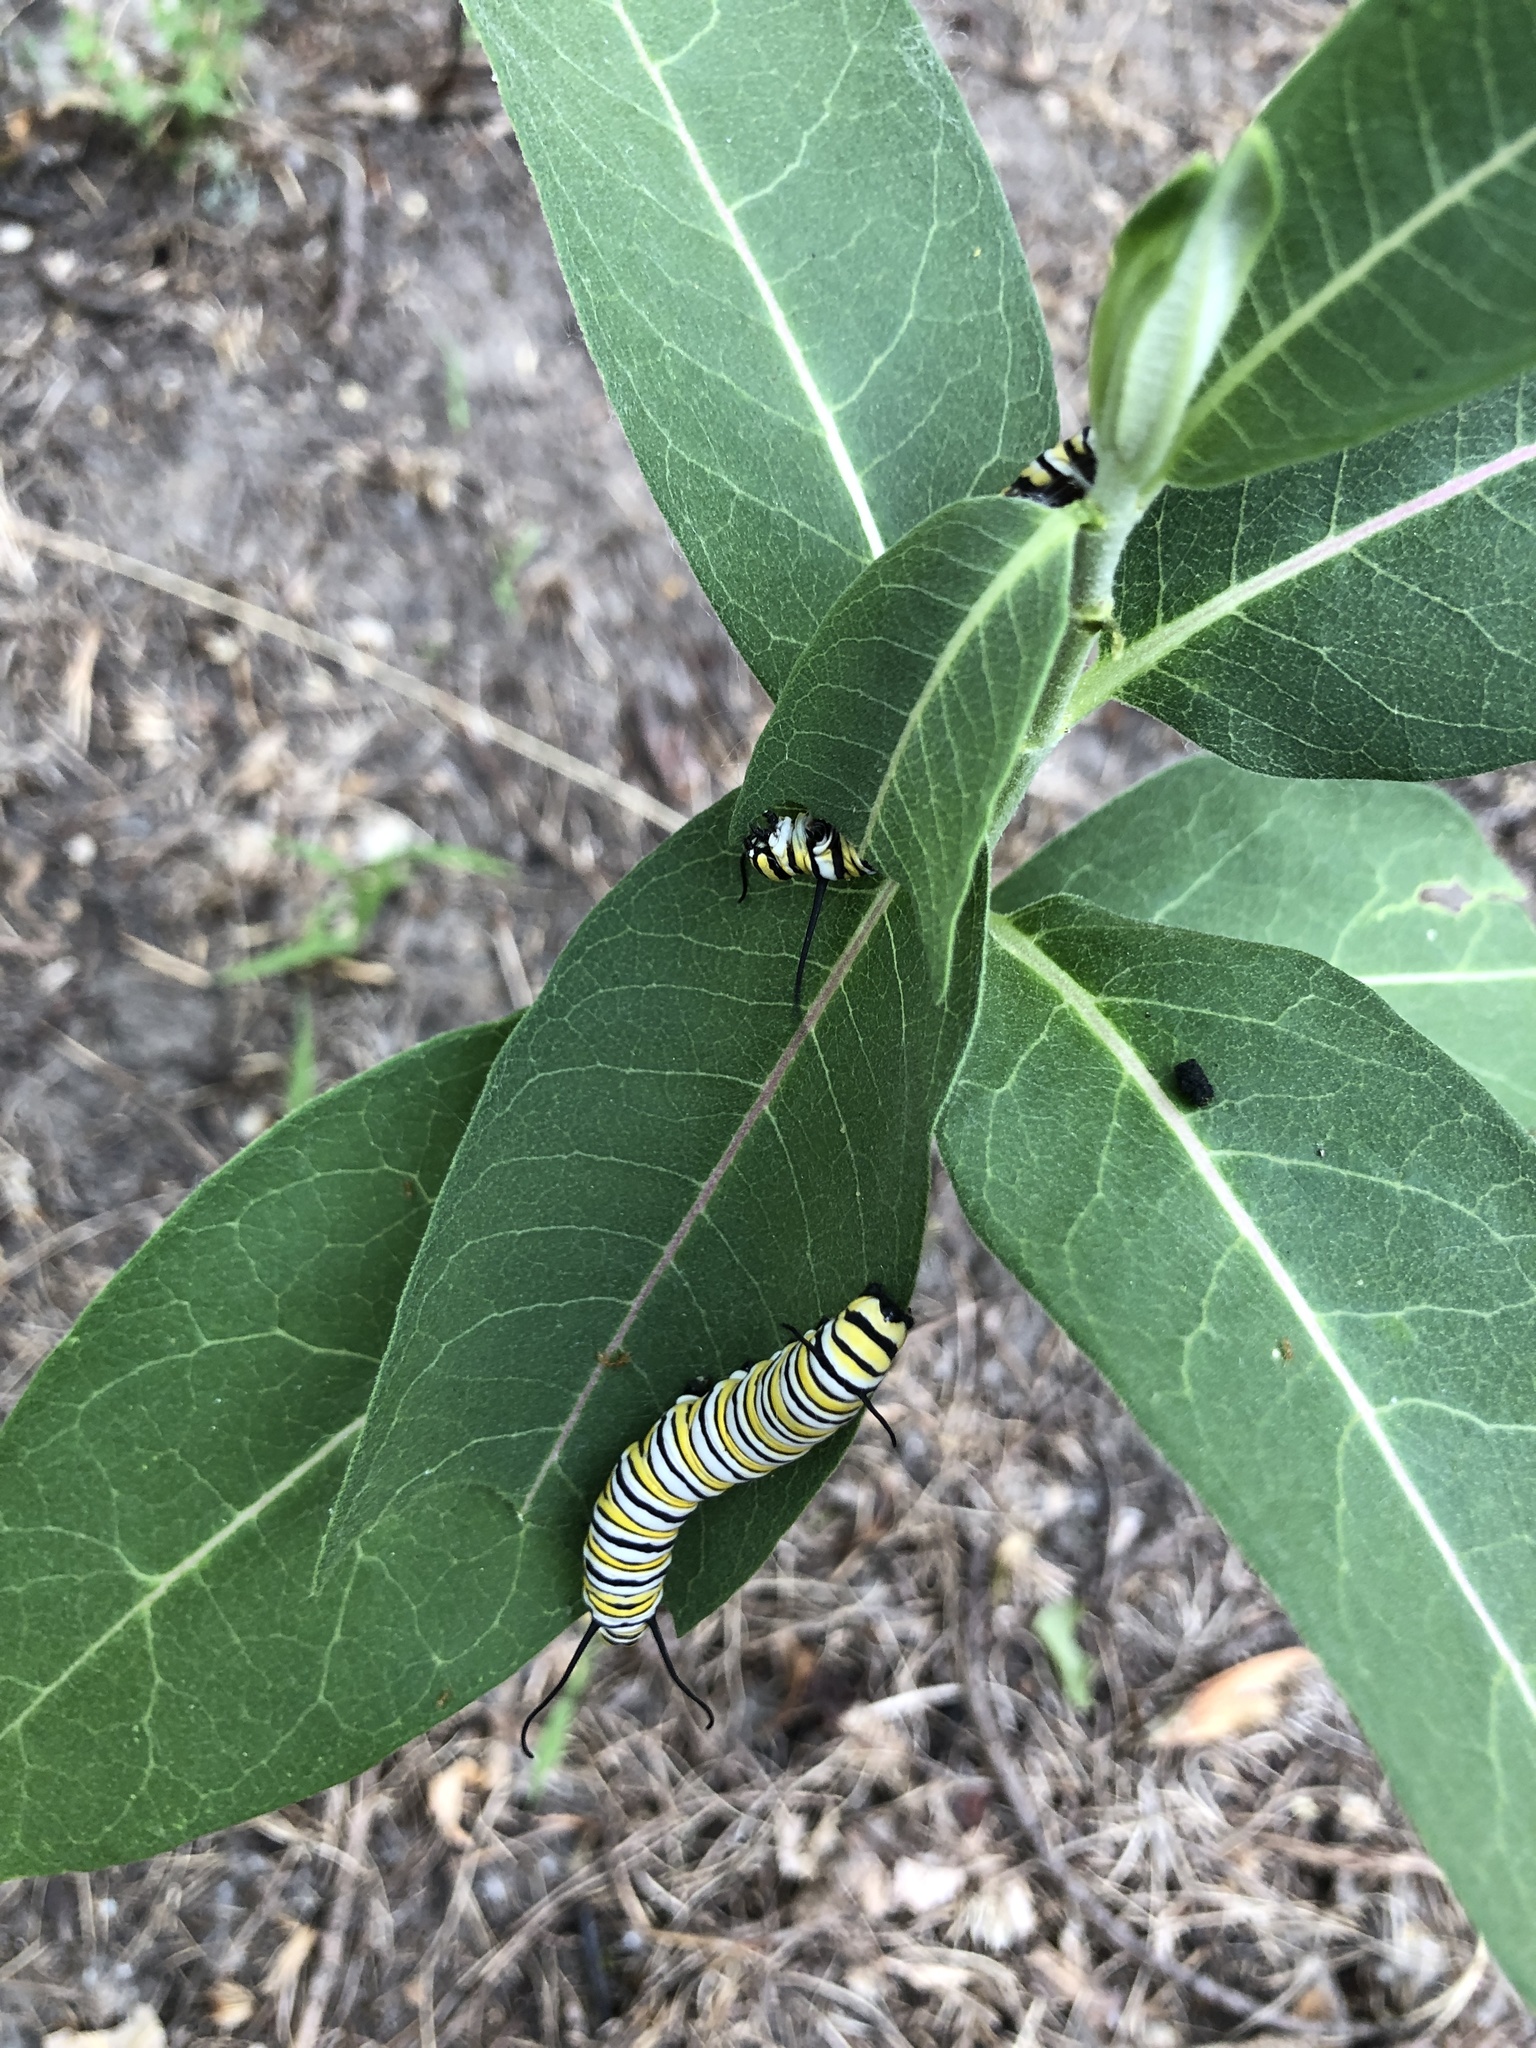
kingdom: Animalia
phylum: Arthropoda
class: Insecta
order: Lepidoptera
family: Nymphalidae
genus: Danaus
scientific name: Danaus plexippus
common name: Monarch
